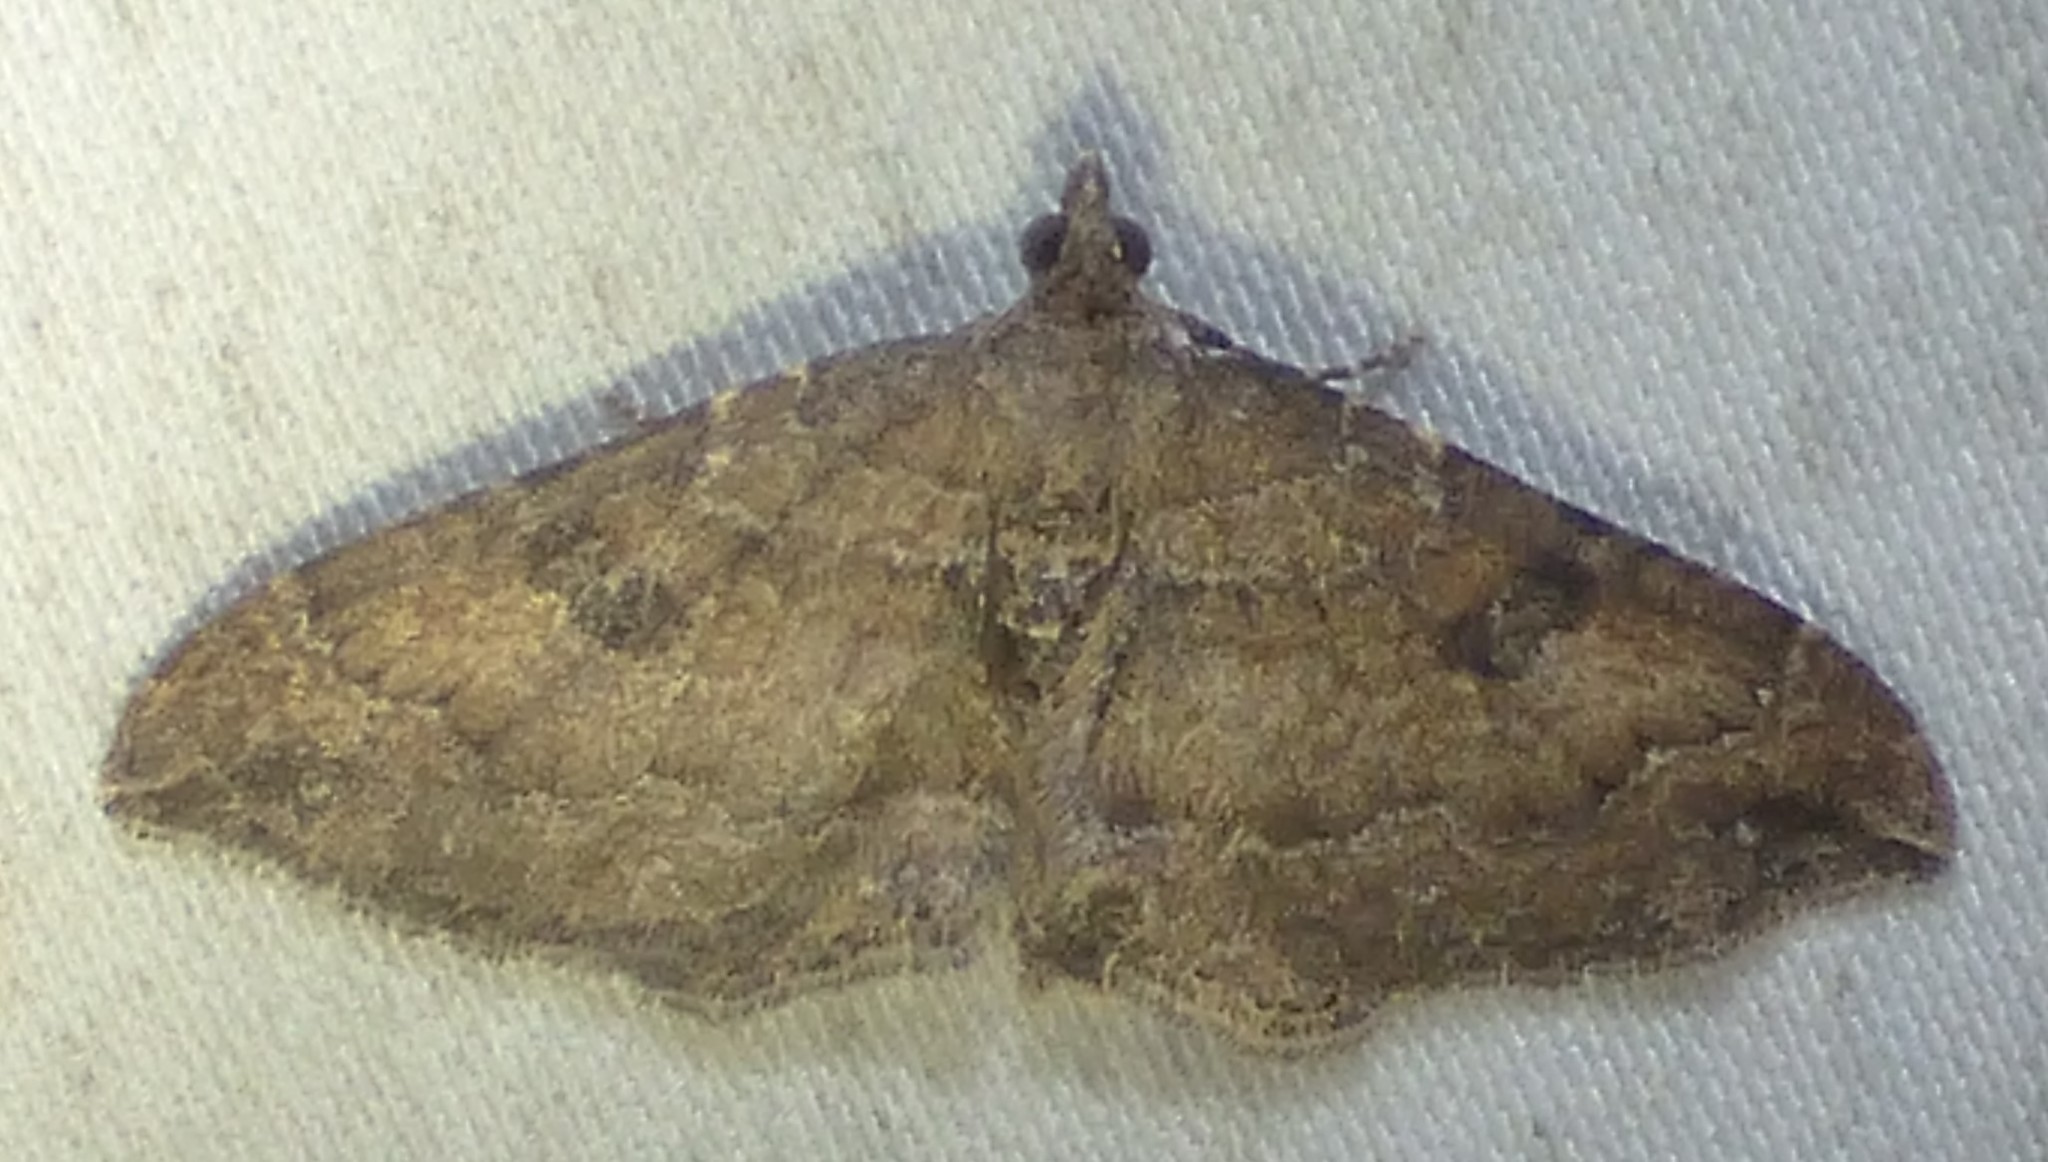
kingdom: Animalia
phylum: Arthropoda
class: Insecta
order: Lepidoptera
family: Geometridae
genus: Orthonama
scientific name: Orthonama obstipata
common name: The gem
